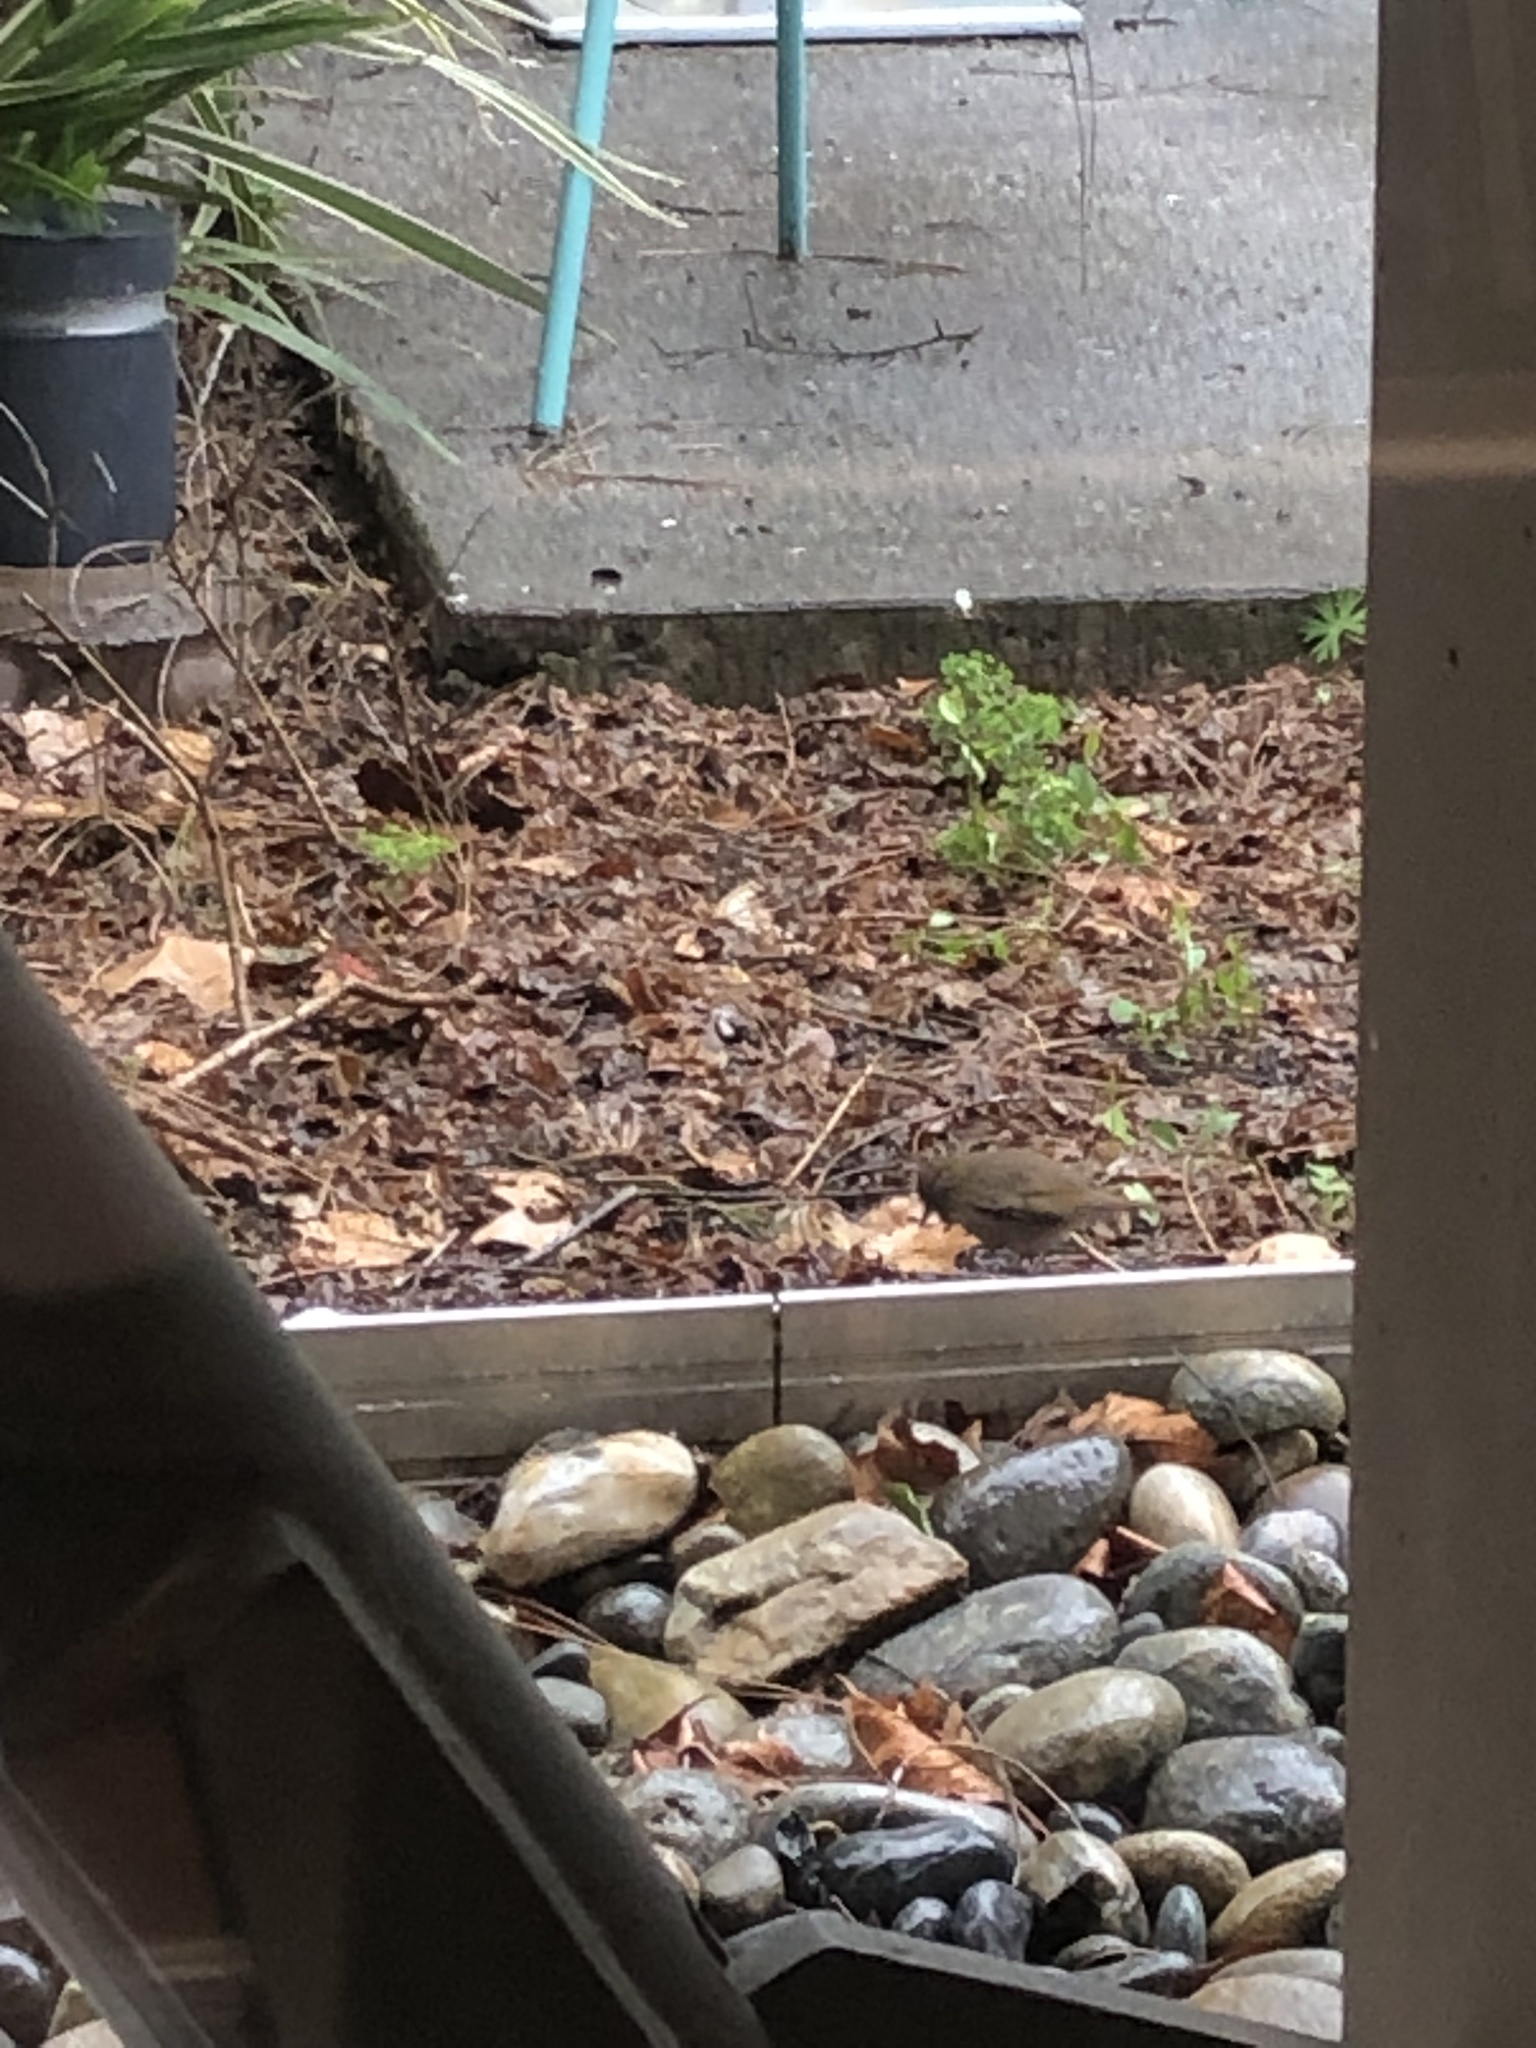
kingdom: Animalia
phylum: Chordata
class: Aves
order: Passeriformes
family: Turdidae
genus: Catharus
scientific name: Catharus guttatus
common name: Hermit thrush
